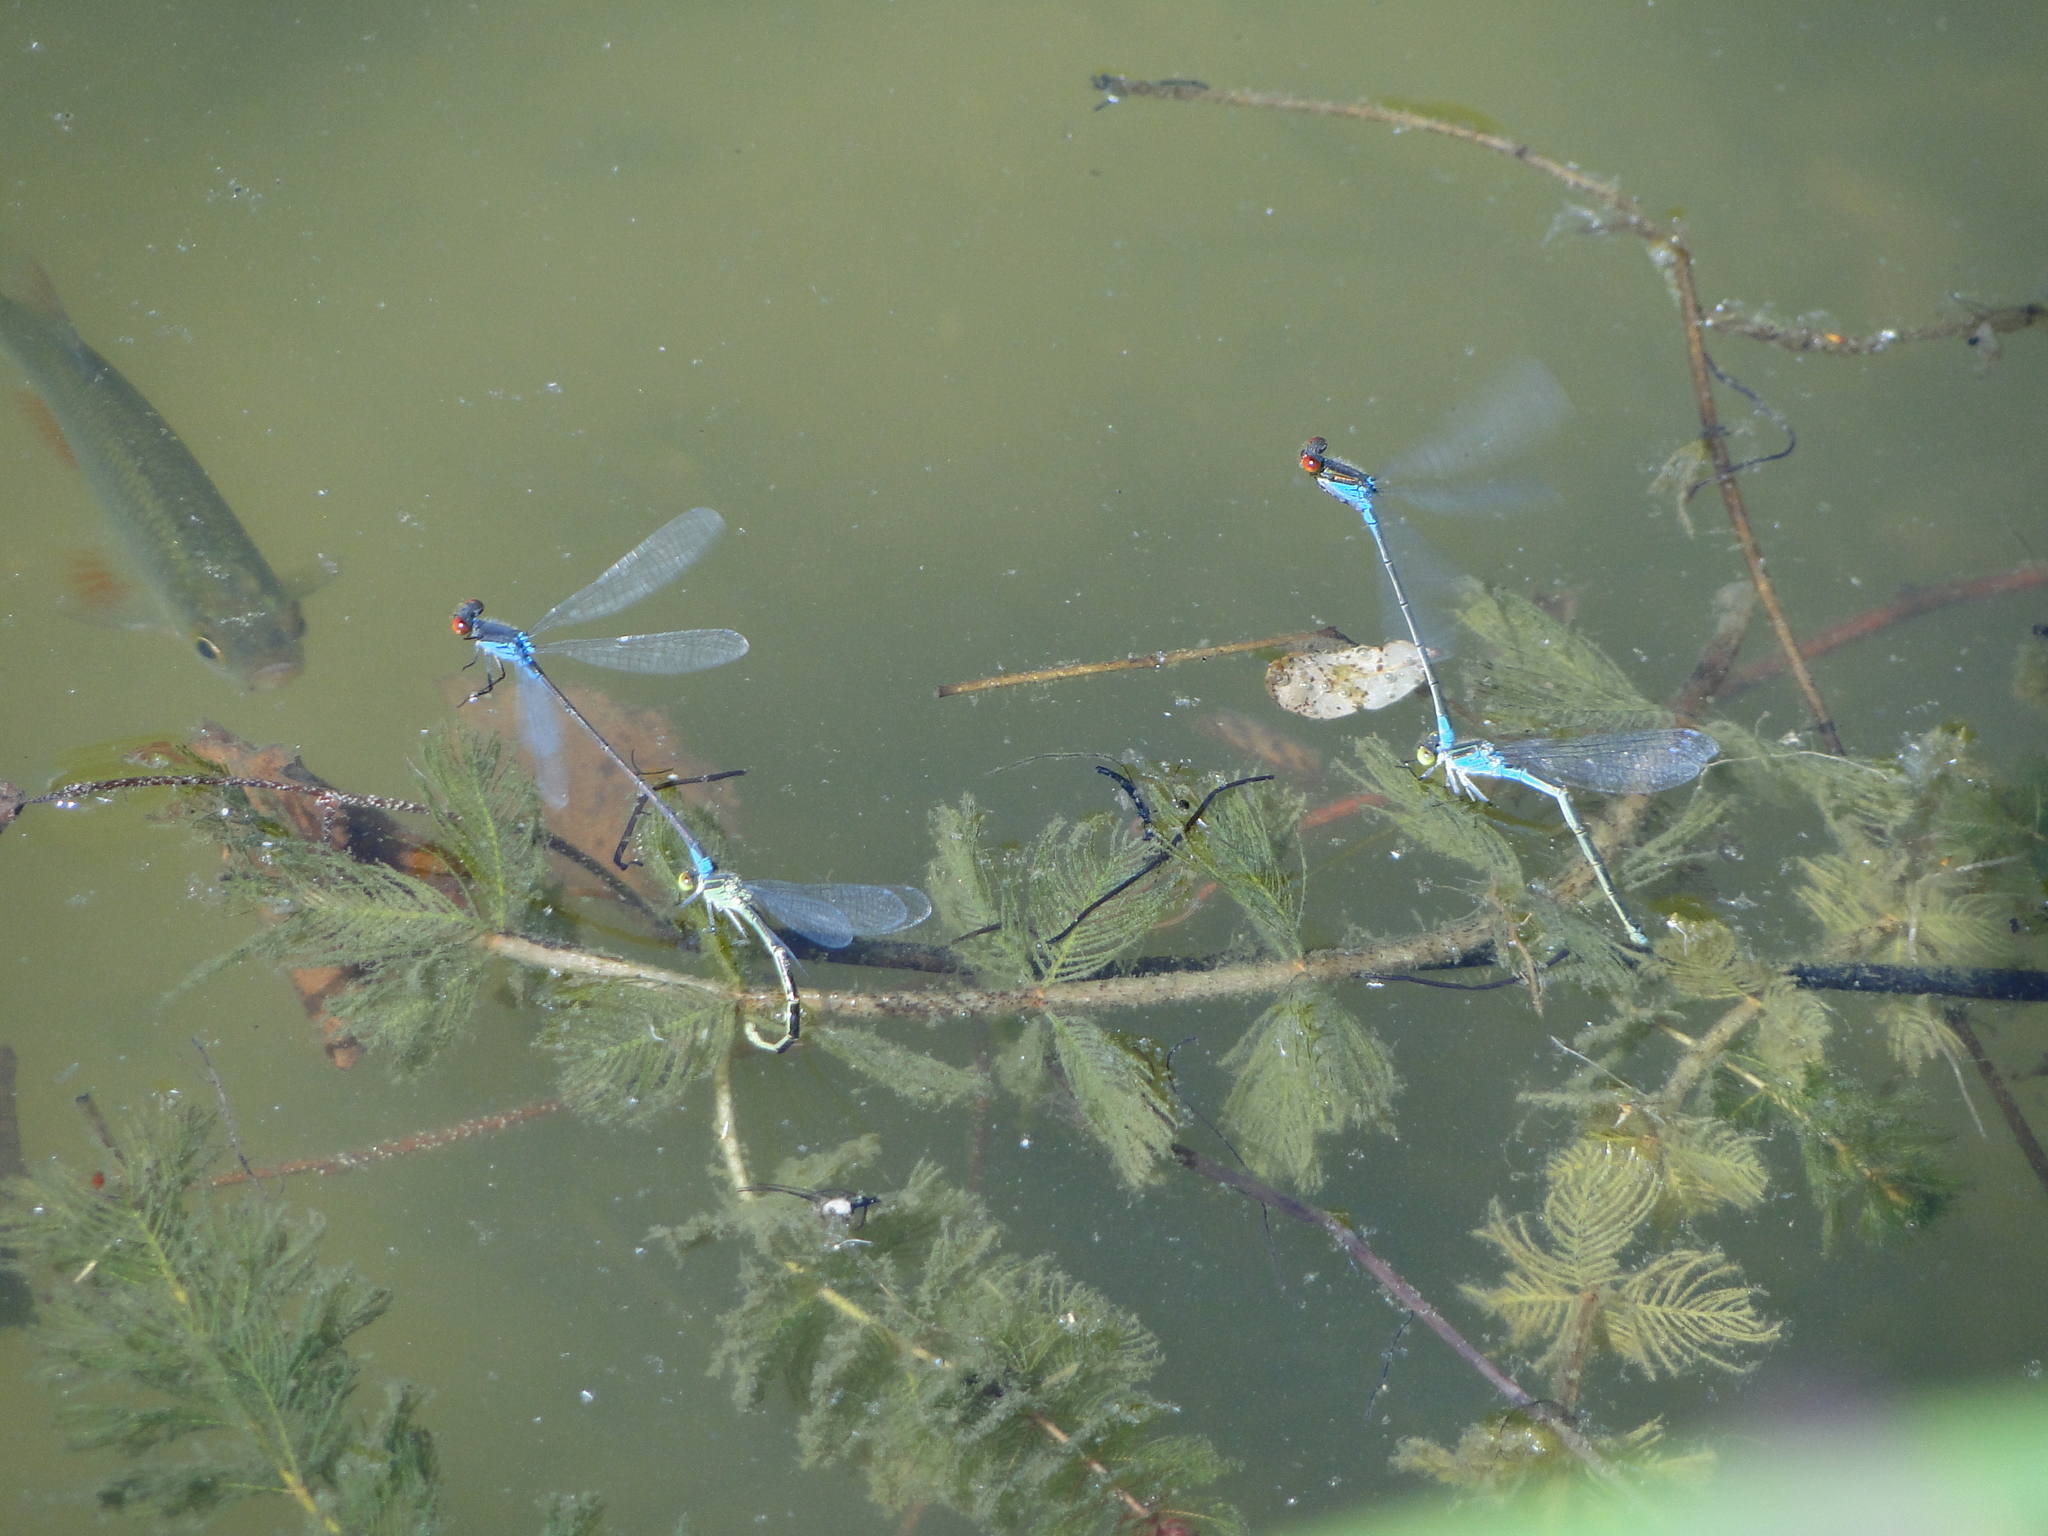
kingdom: Animalia
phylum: Arthropoda
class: Insecta
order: Odonata
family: Coenagrionidae
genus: Erythromma
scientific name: Erythromma viridulum
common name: Small red-eyed damselfly
